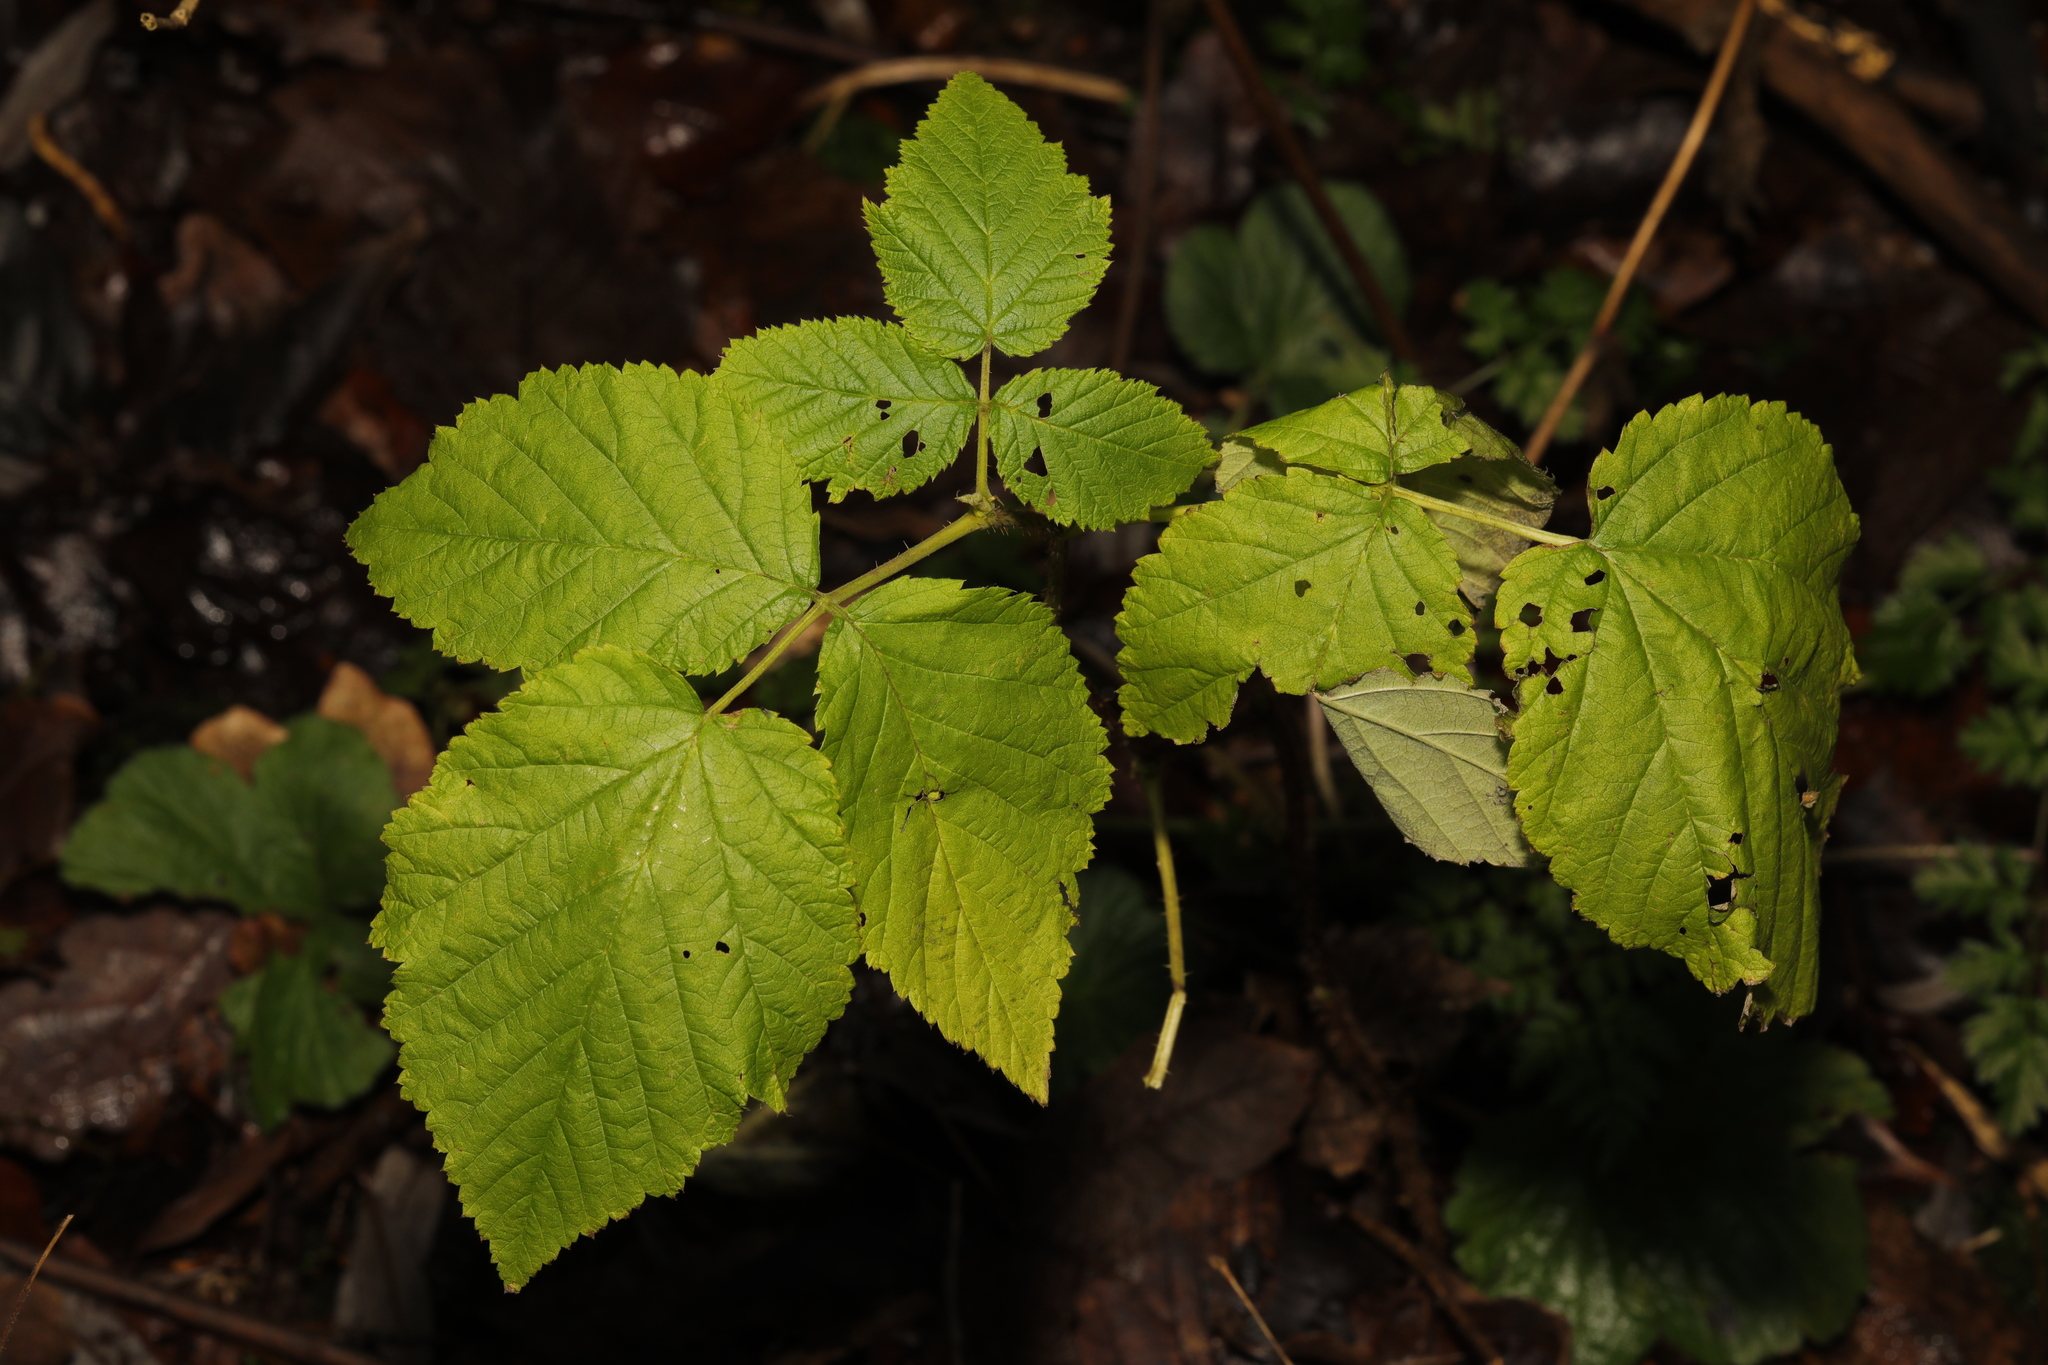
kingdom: Plantae
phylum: Tracheophyta
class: Magnoliopsida
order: Rosales
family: Rosaceae
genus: Rubus
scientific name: Rubus idaeus
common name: Raspberry
